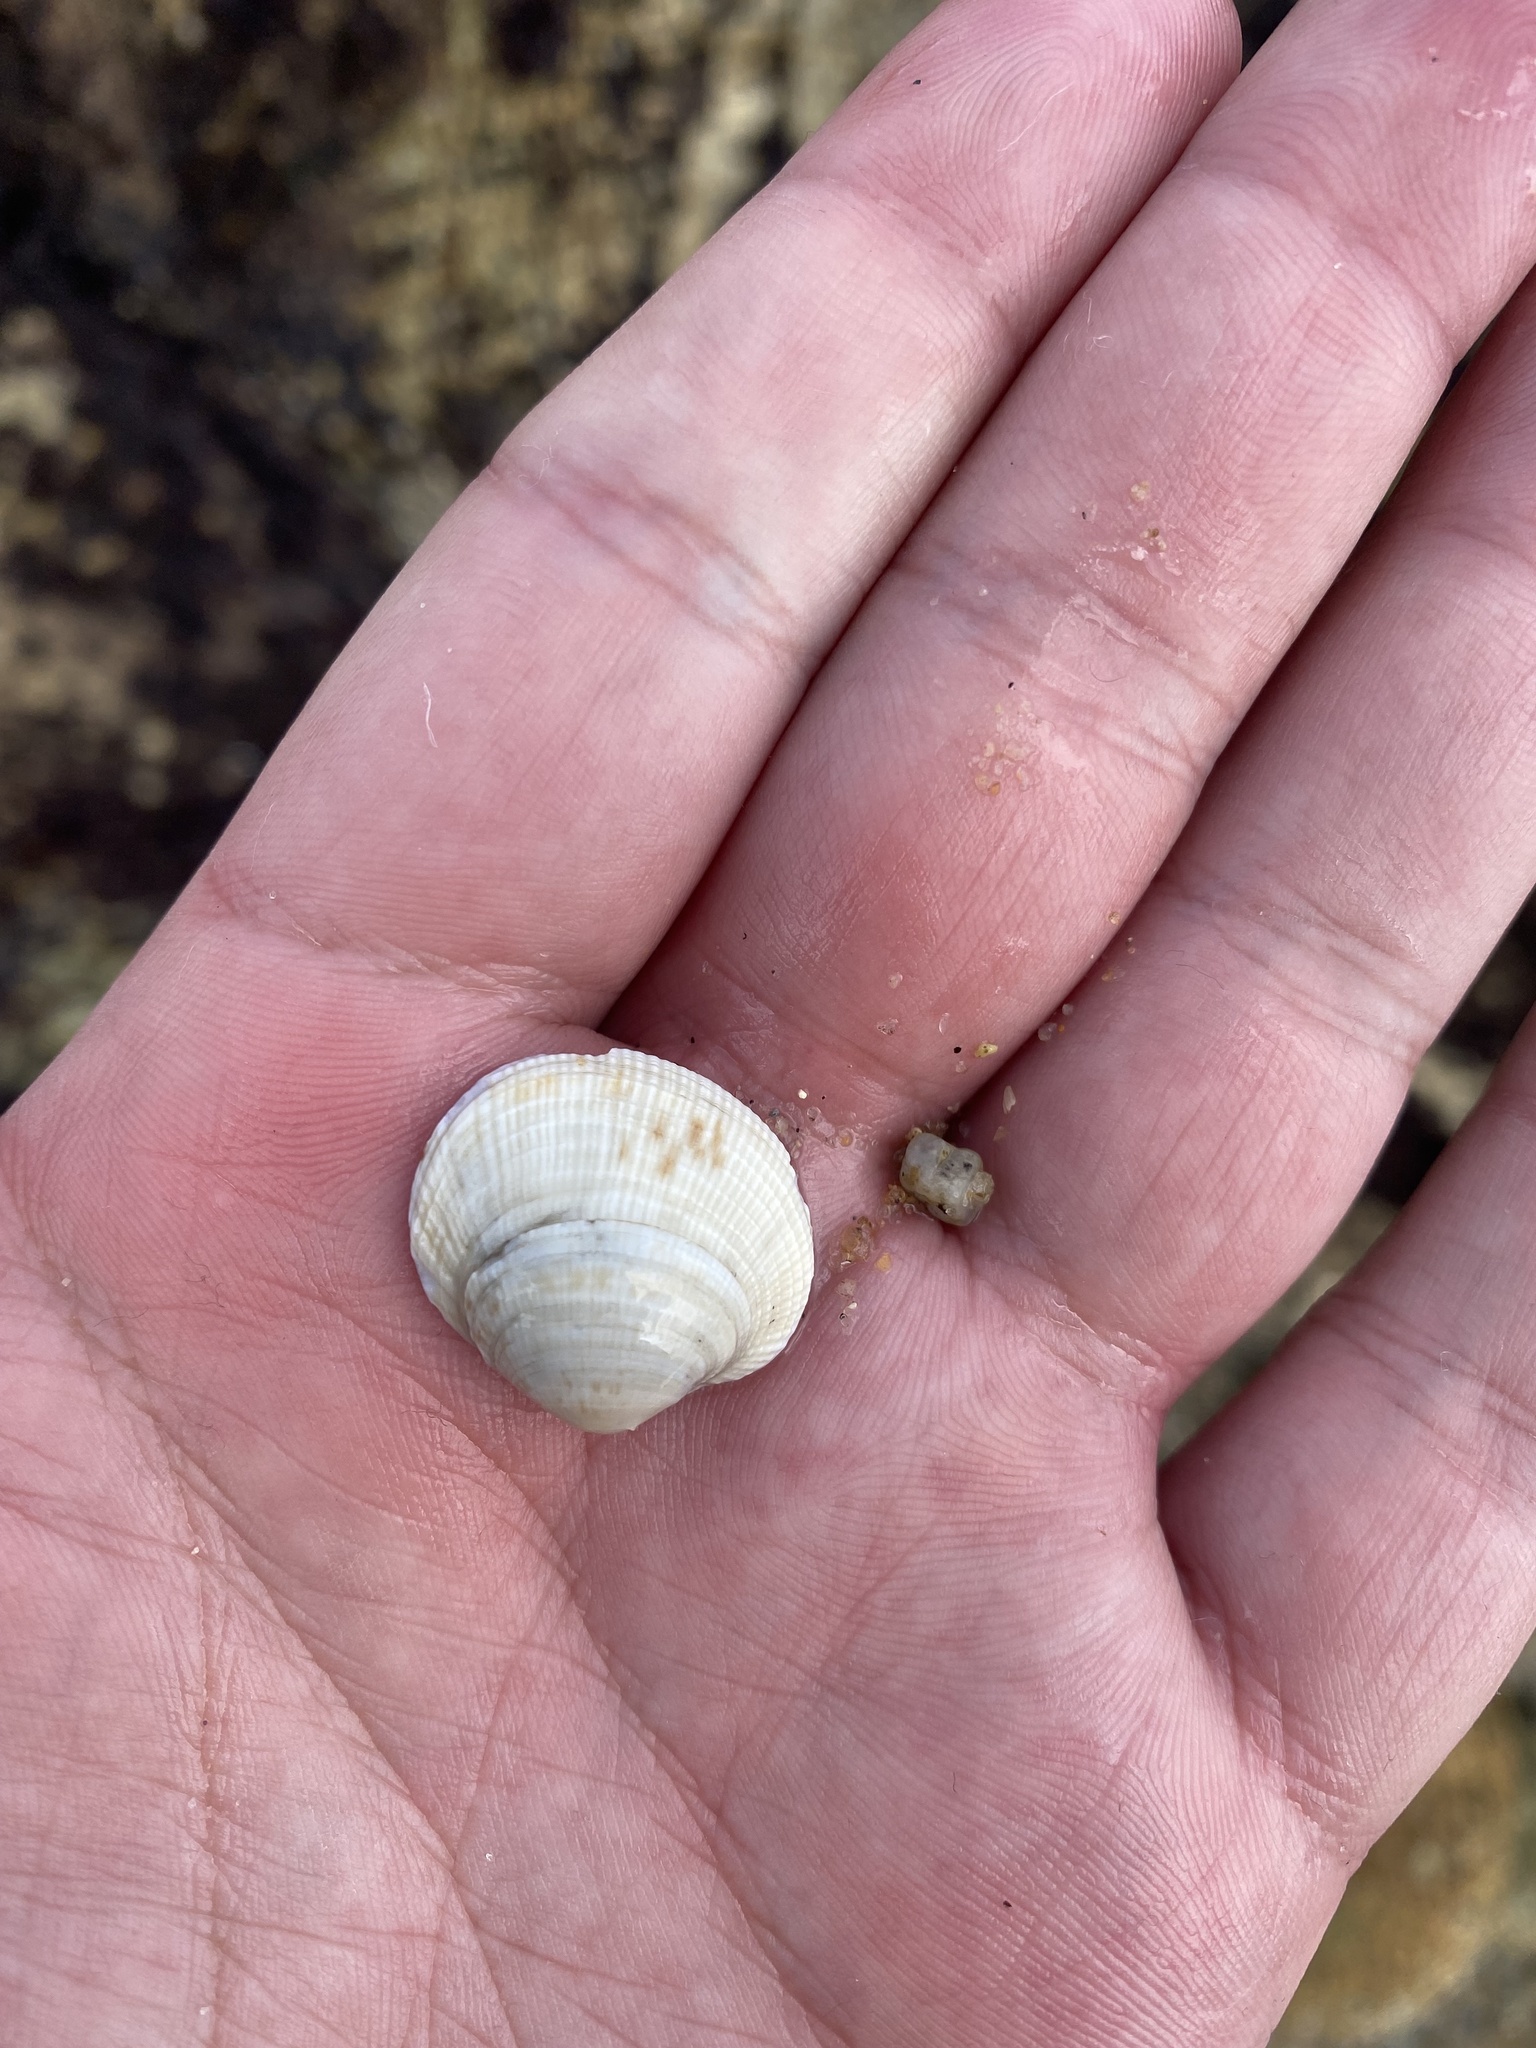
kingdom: Animalia
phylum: Mollusca
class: Bivalvia
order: Venerida
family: Veneridae
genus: Leukoma
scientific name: Leukoma staminea
